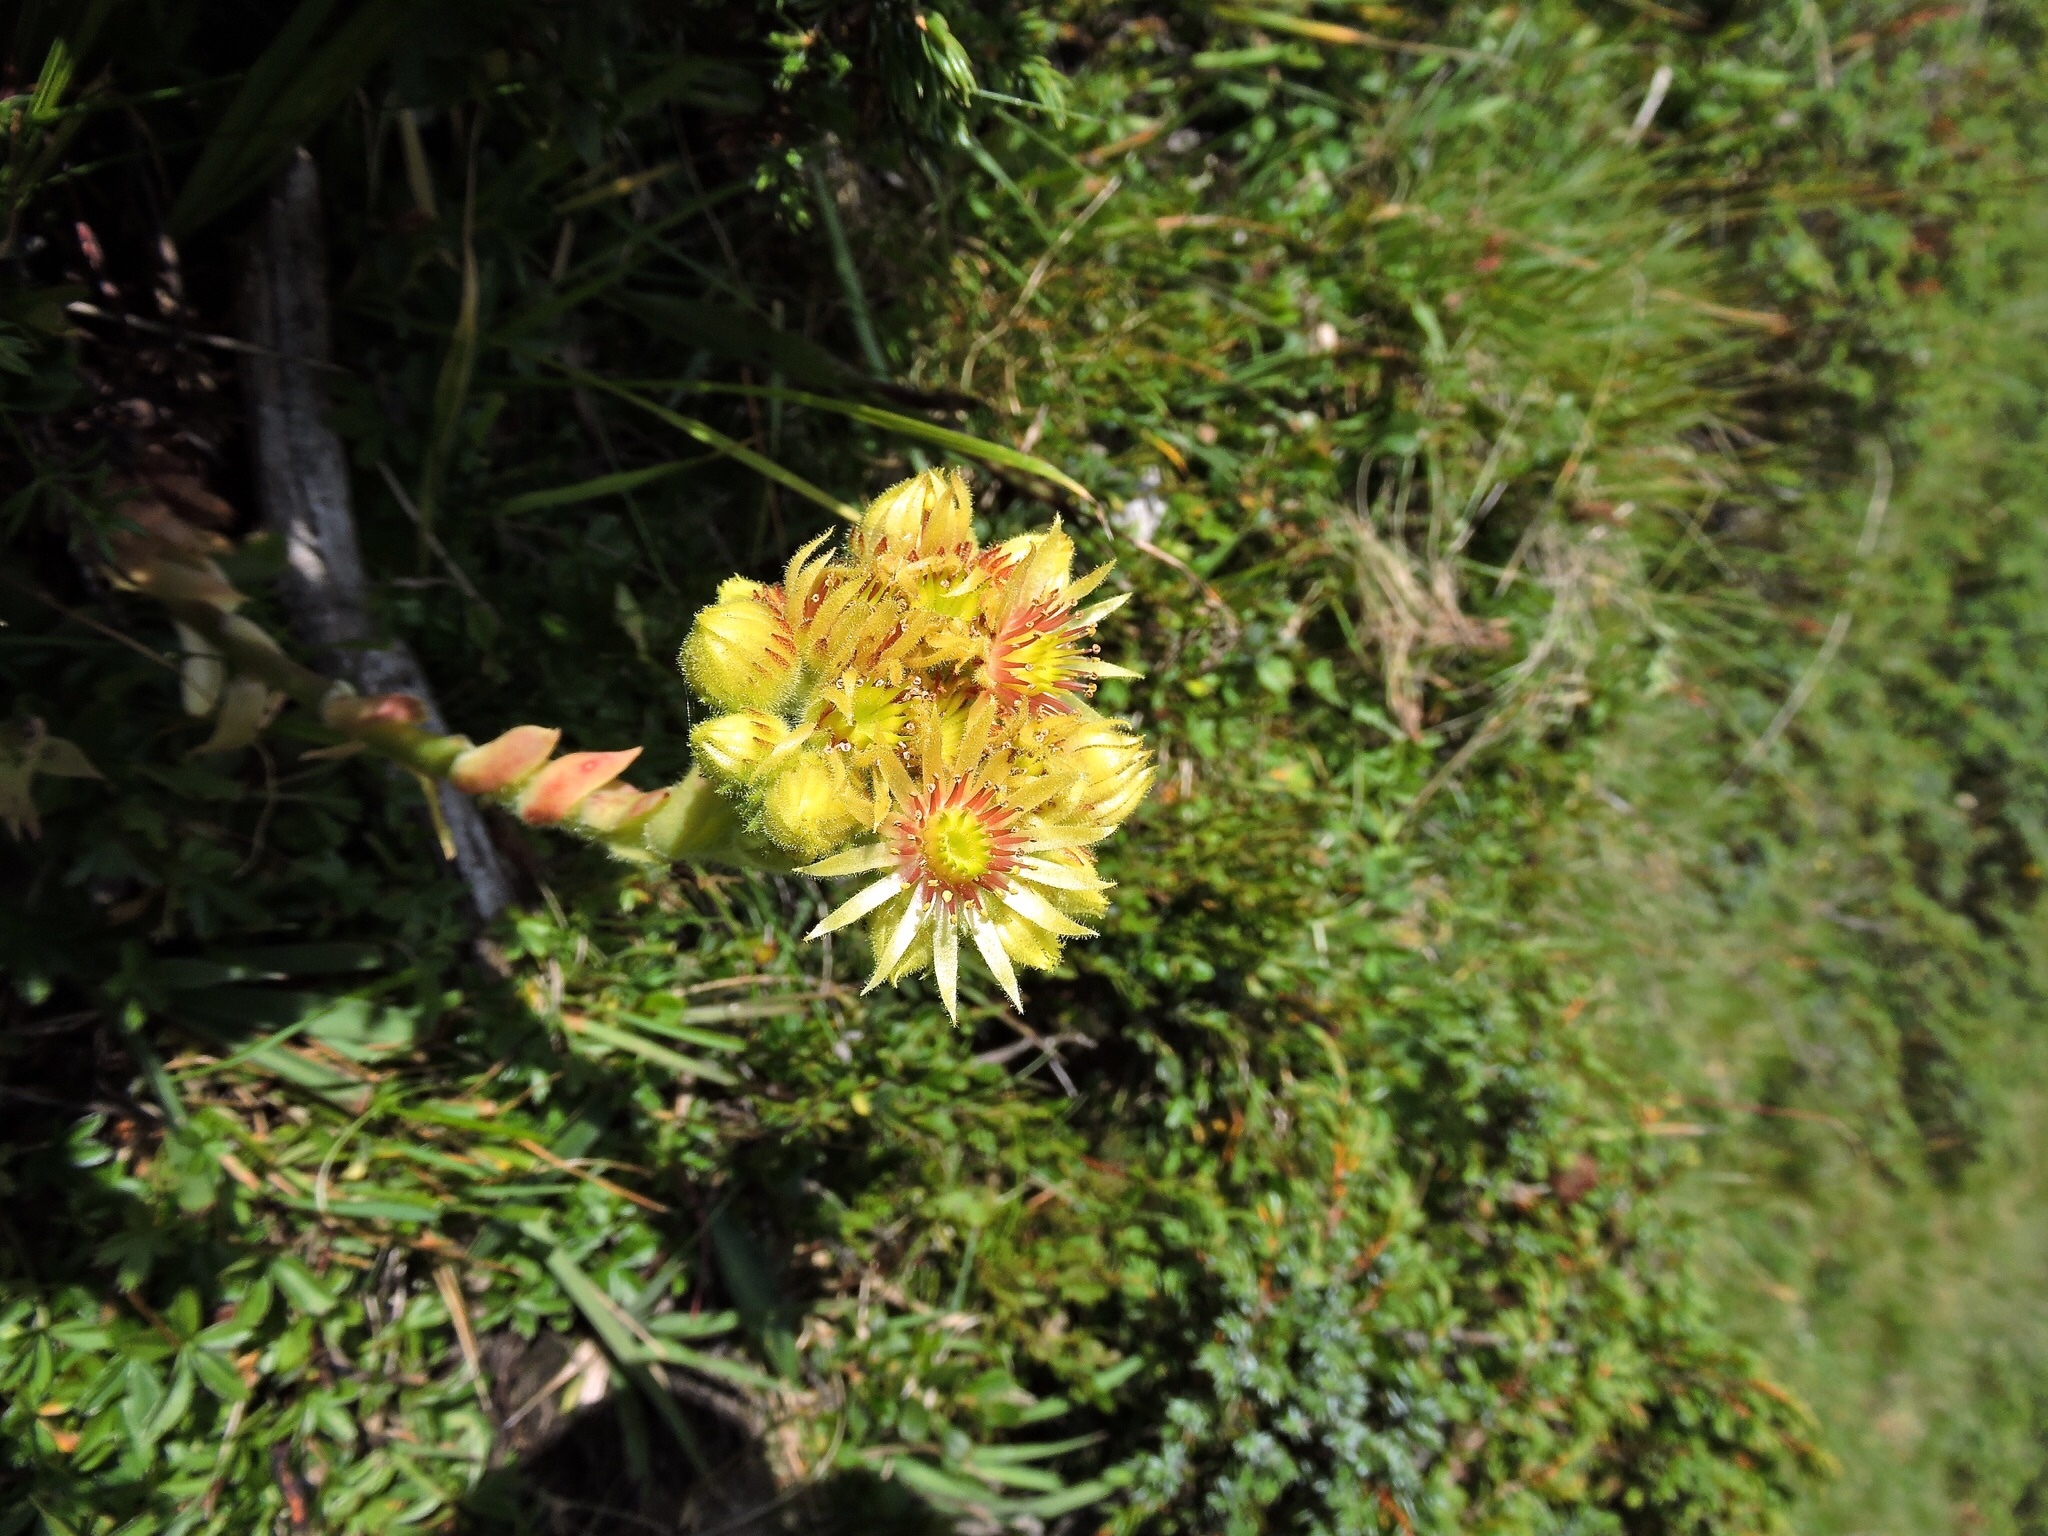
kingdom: Plantae
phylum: Tracheophyta
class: Magnoliopsida
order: Saxifragales
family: Crassulaceae
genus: Sempervivum
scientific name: Sempervivum wulfenii
